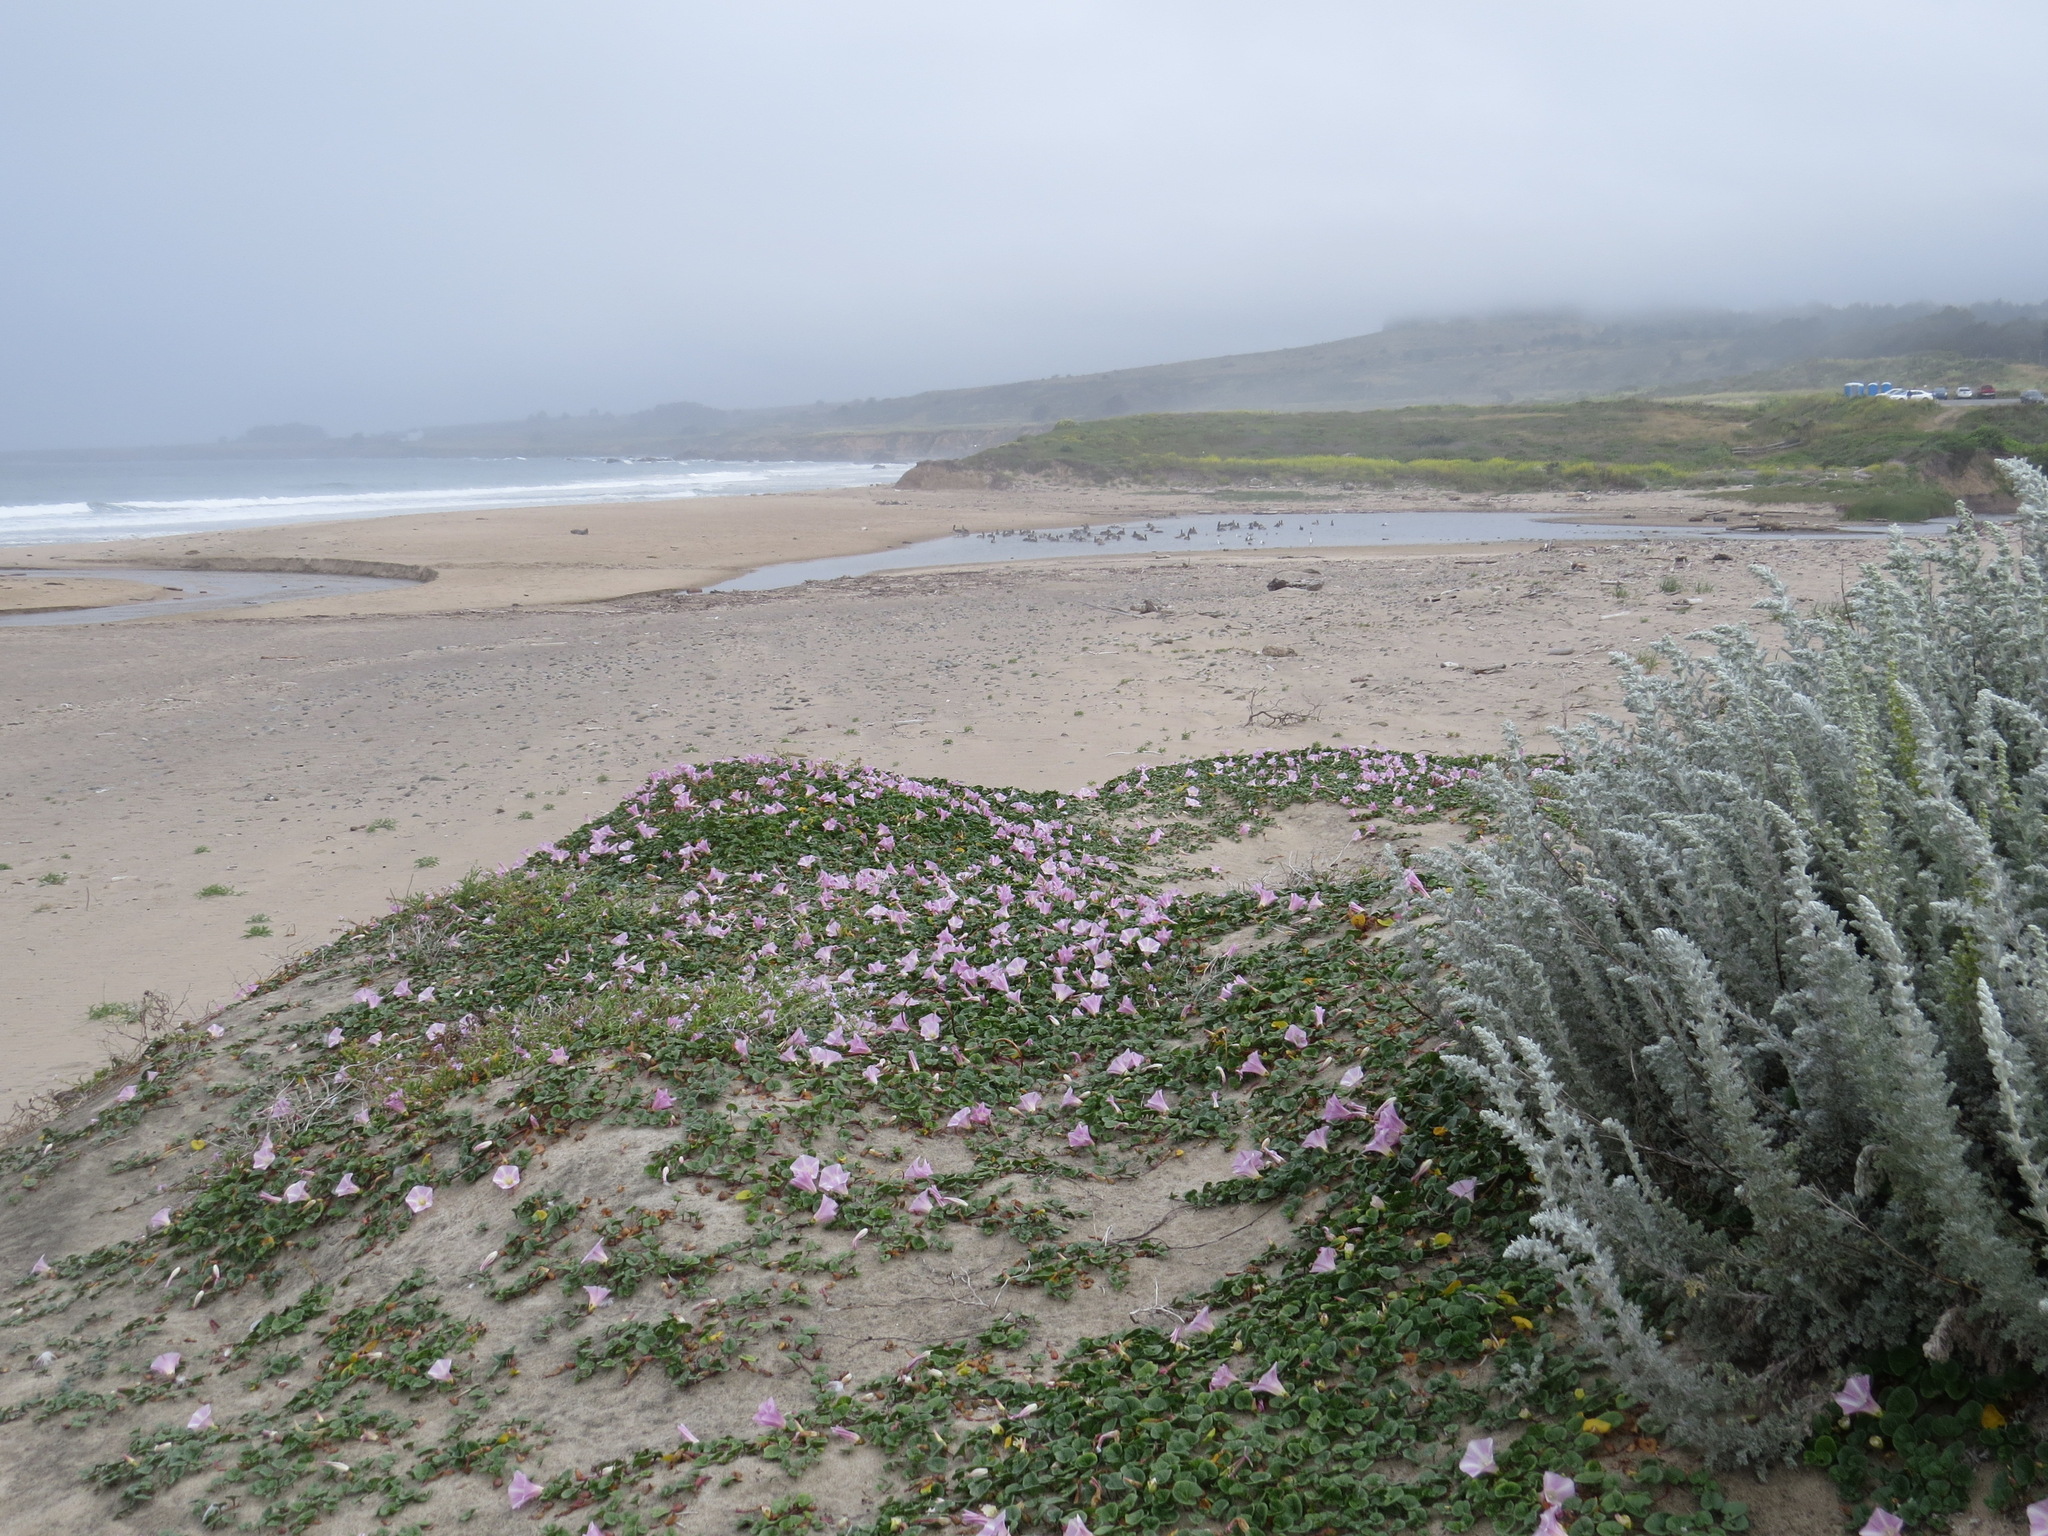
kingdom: Plantae
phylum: Tracheophyta
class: Magnoliopsida
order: Solanales
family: Convolvulaceae
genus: Calystegia
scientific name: Calystegia soldanella
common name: Sea bindweed
